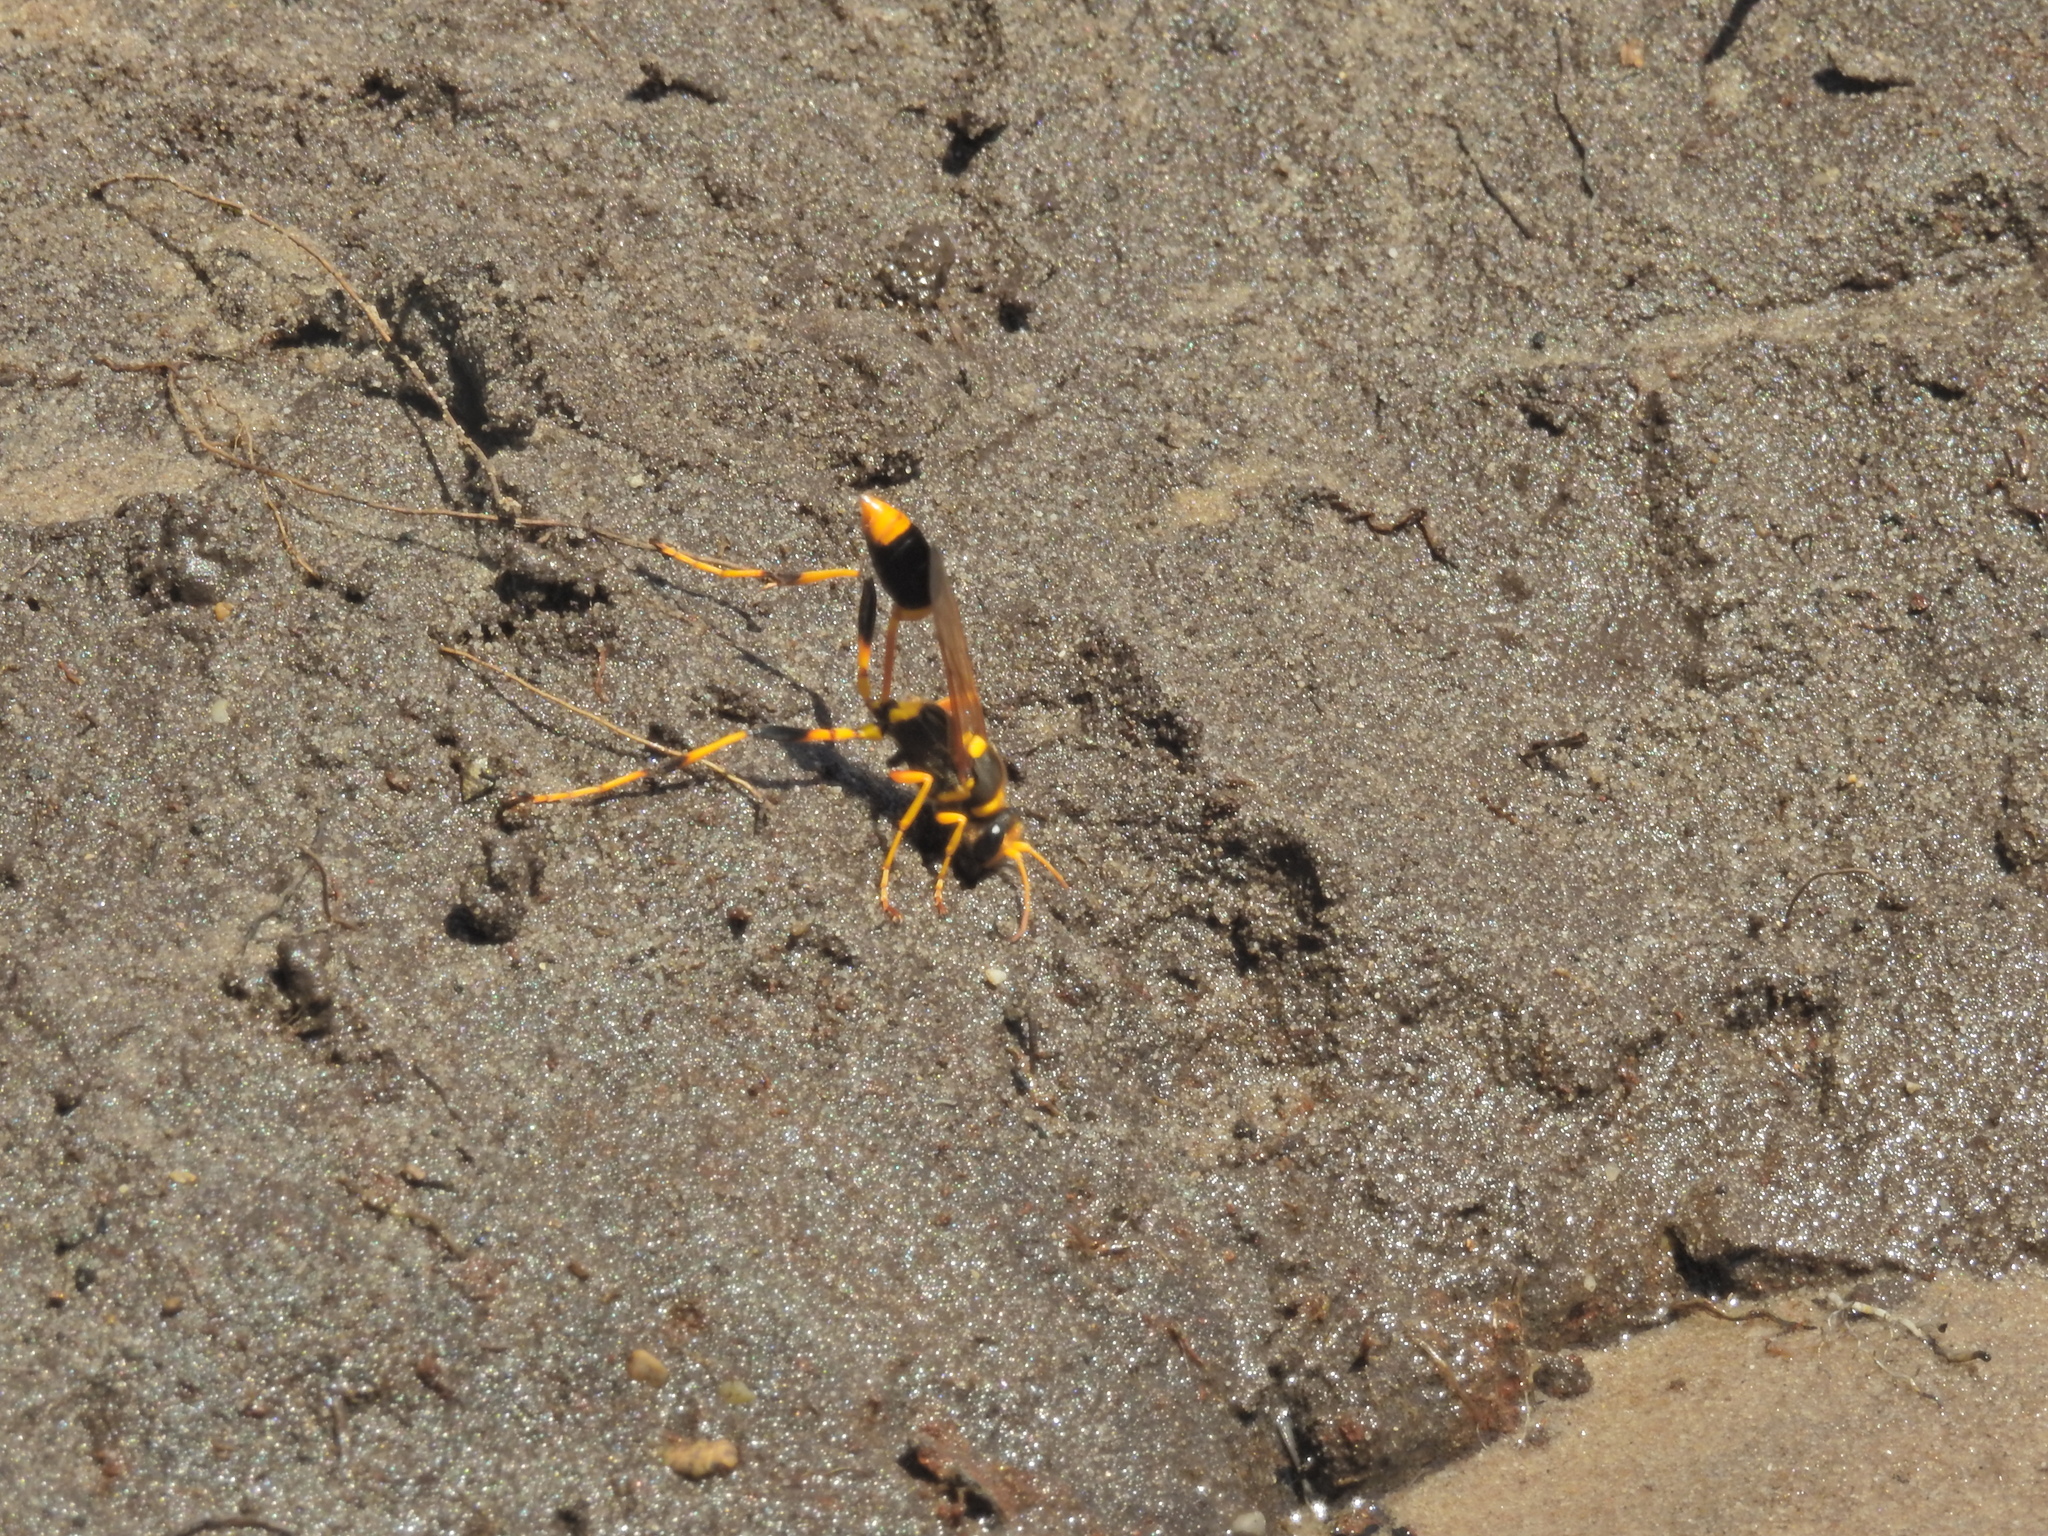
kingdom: Animalia
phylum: Arthropoda
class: Insecta
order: Hymenoptera
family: Sphecidae
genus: Sceliphron
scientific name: Sceliphron laetum
